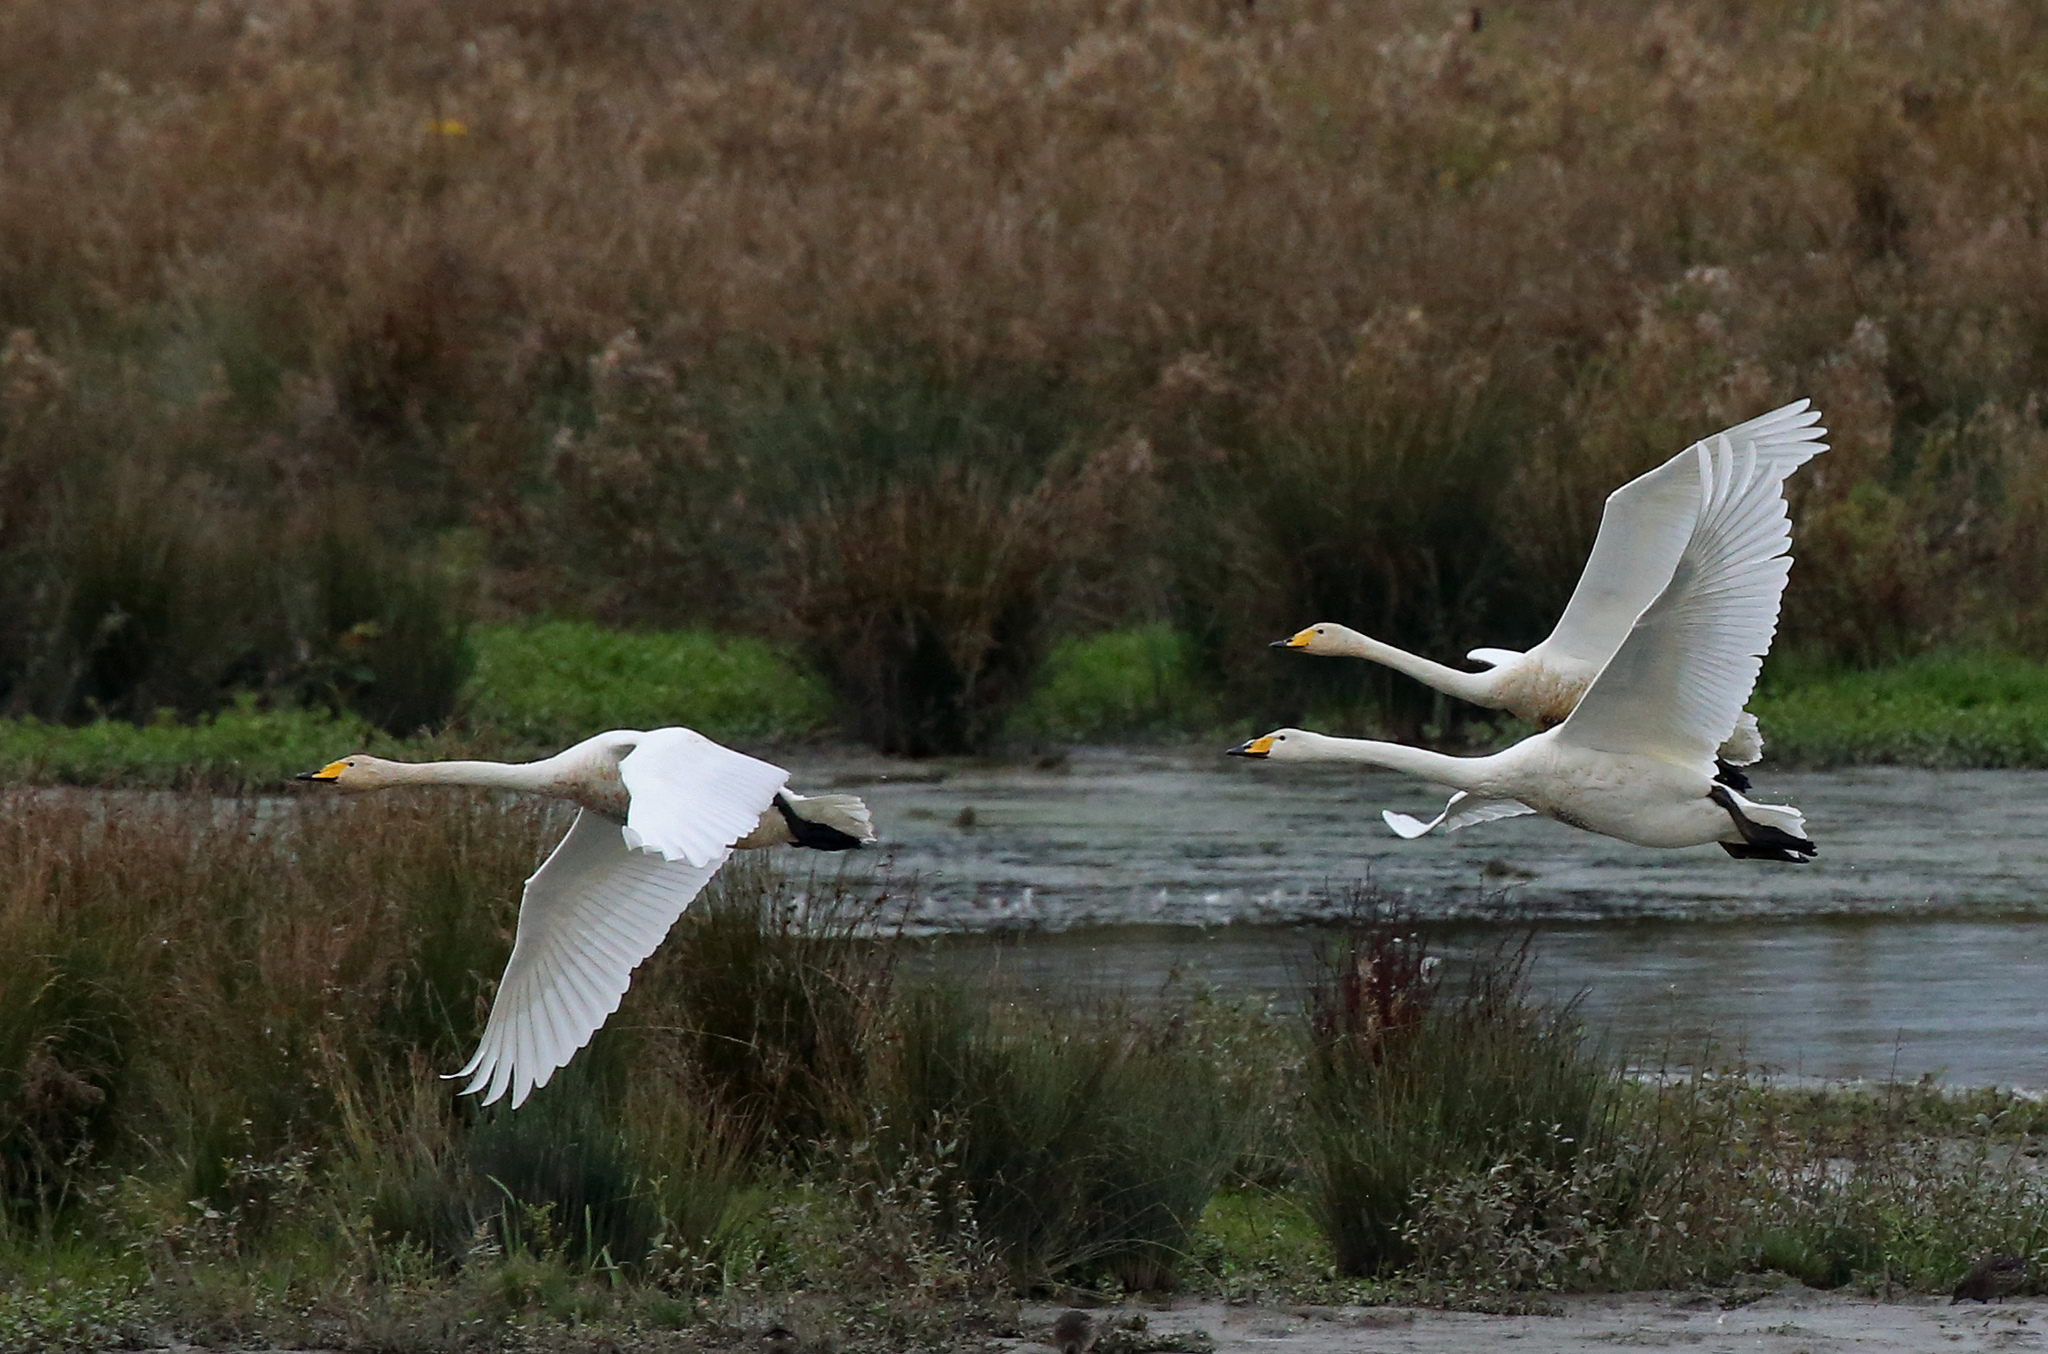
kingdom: Animalia
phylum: Chordata
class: Aves
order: Anseriformes
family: Anatidae
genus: Cygnus
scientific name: Cygnus cygnus
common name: Whooper swan
